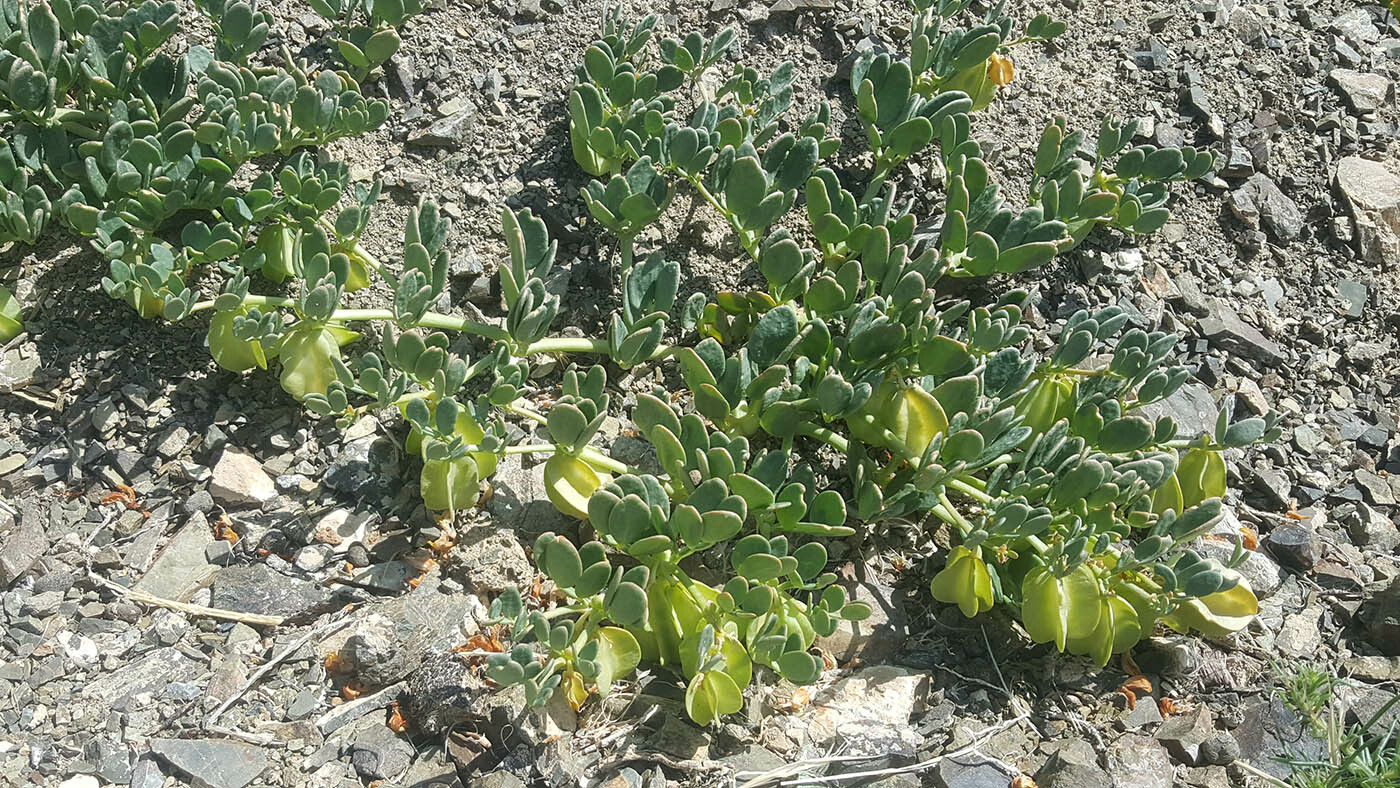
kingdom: Plantae
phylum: Tracheophyta
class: Magnoliopsida
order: Zygophyllales
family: Zygophyllaceae
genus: Zygophyllum
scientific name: Zygophyllum potaninii
